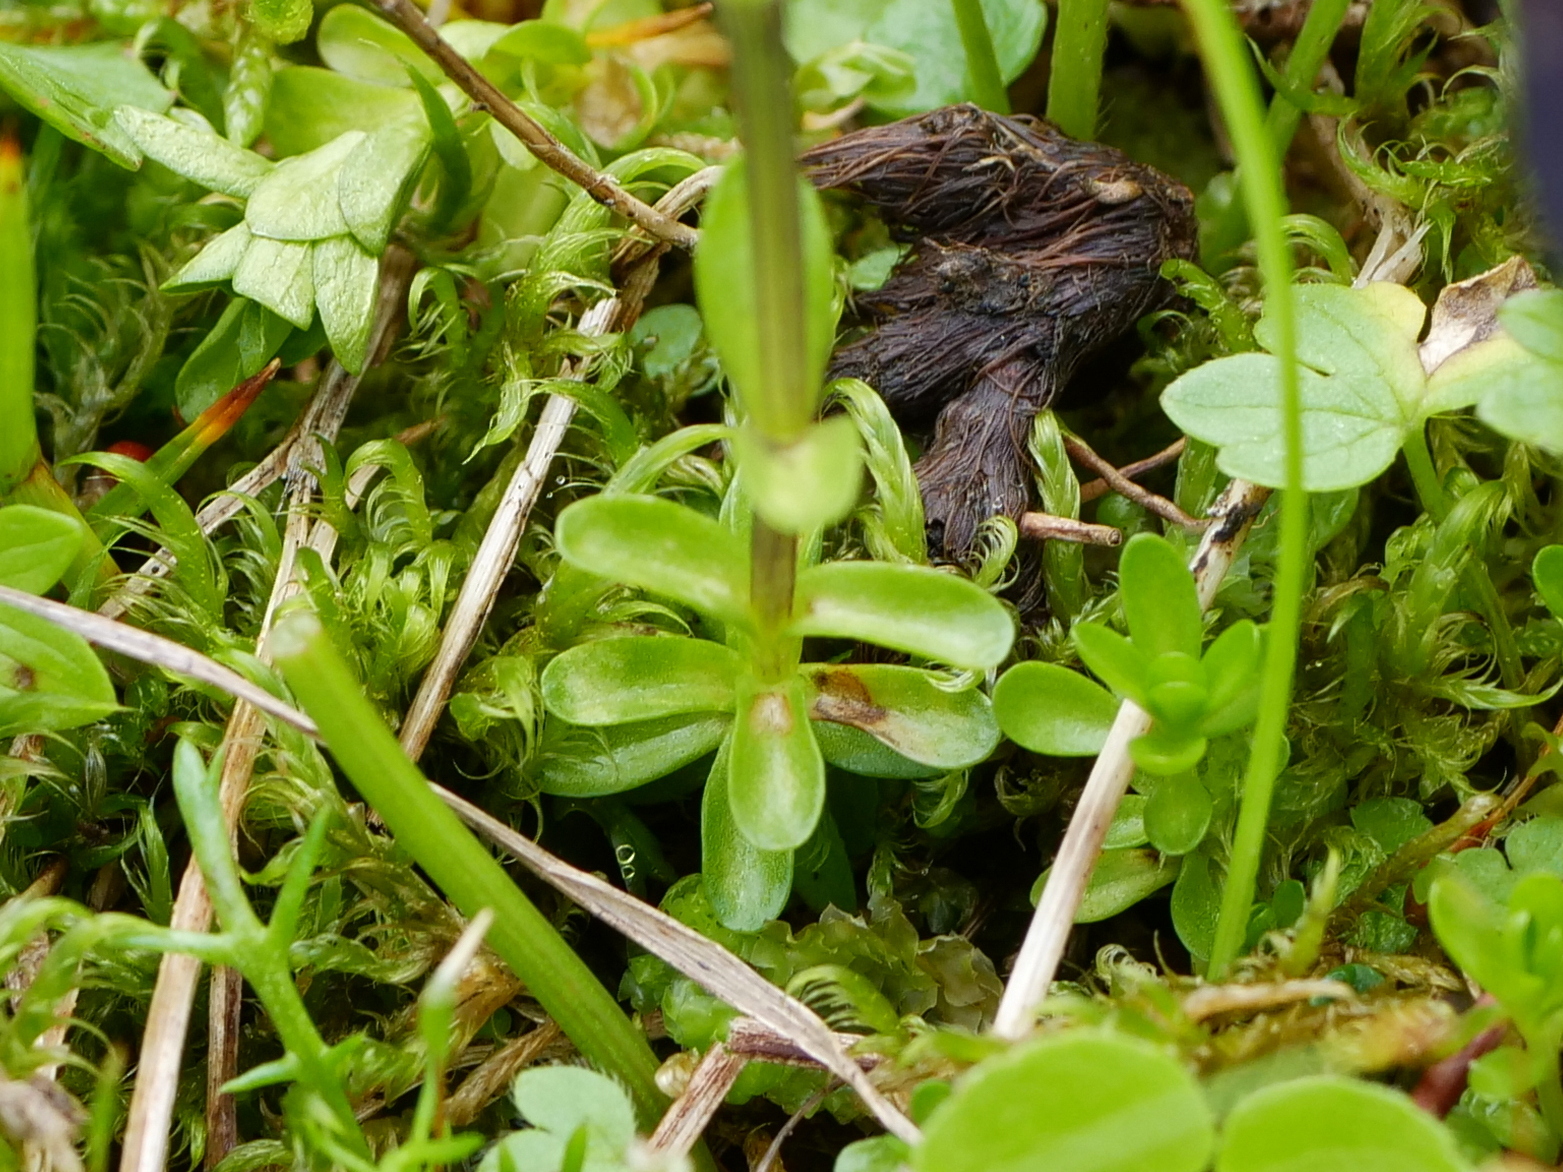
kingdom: Plantae
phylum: Tracheophyta
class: Magnoliopsida
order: Gentianales
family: Gentianaceae
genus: Gentiana
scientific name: Gentiana bavarica
